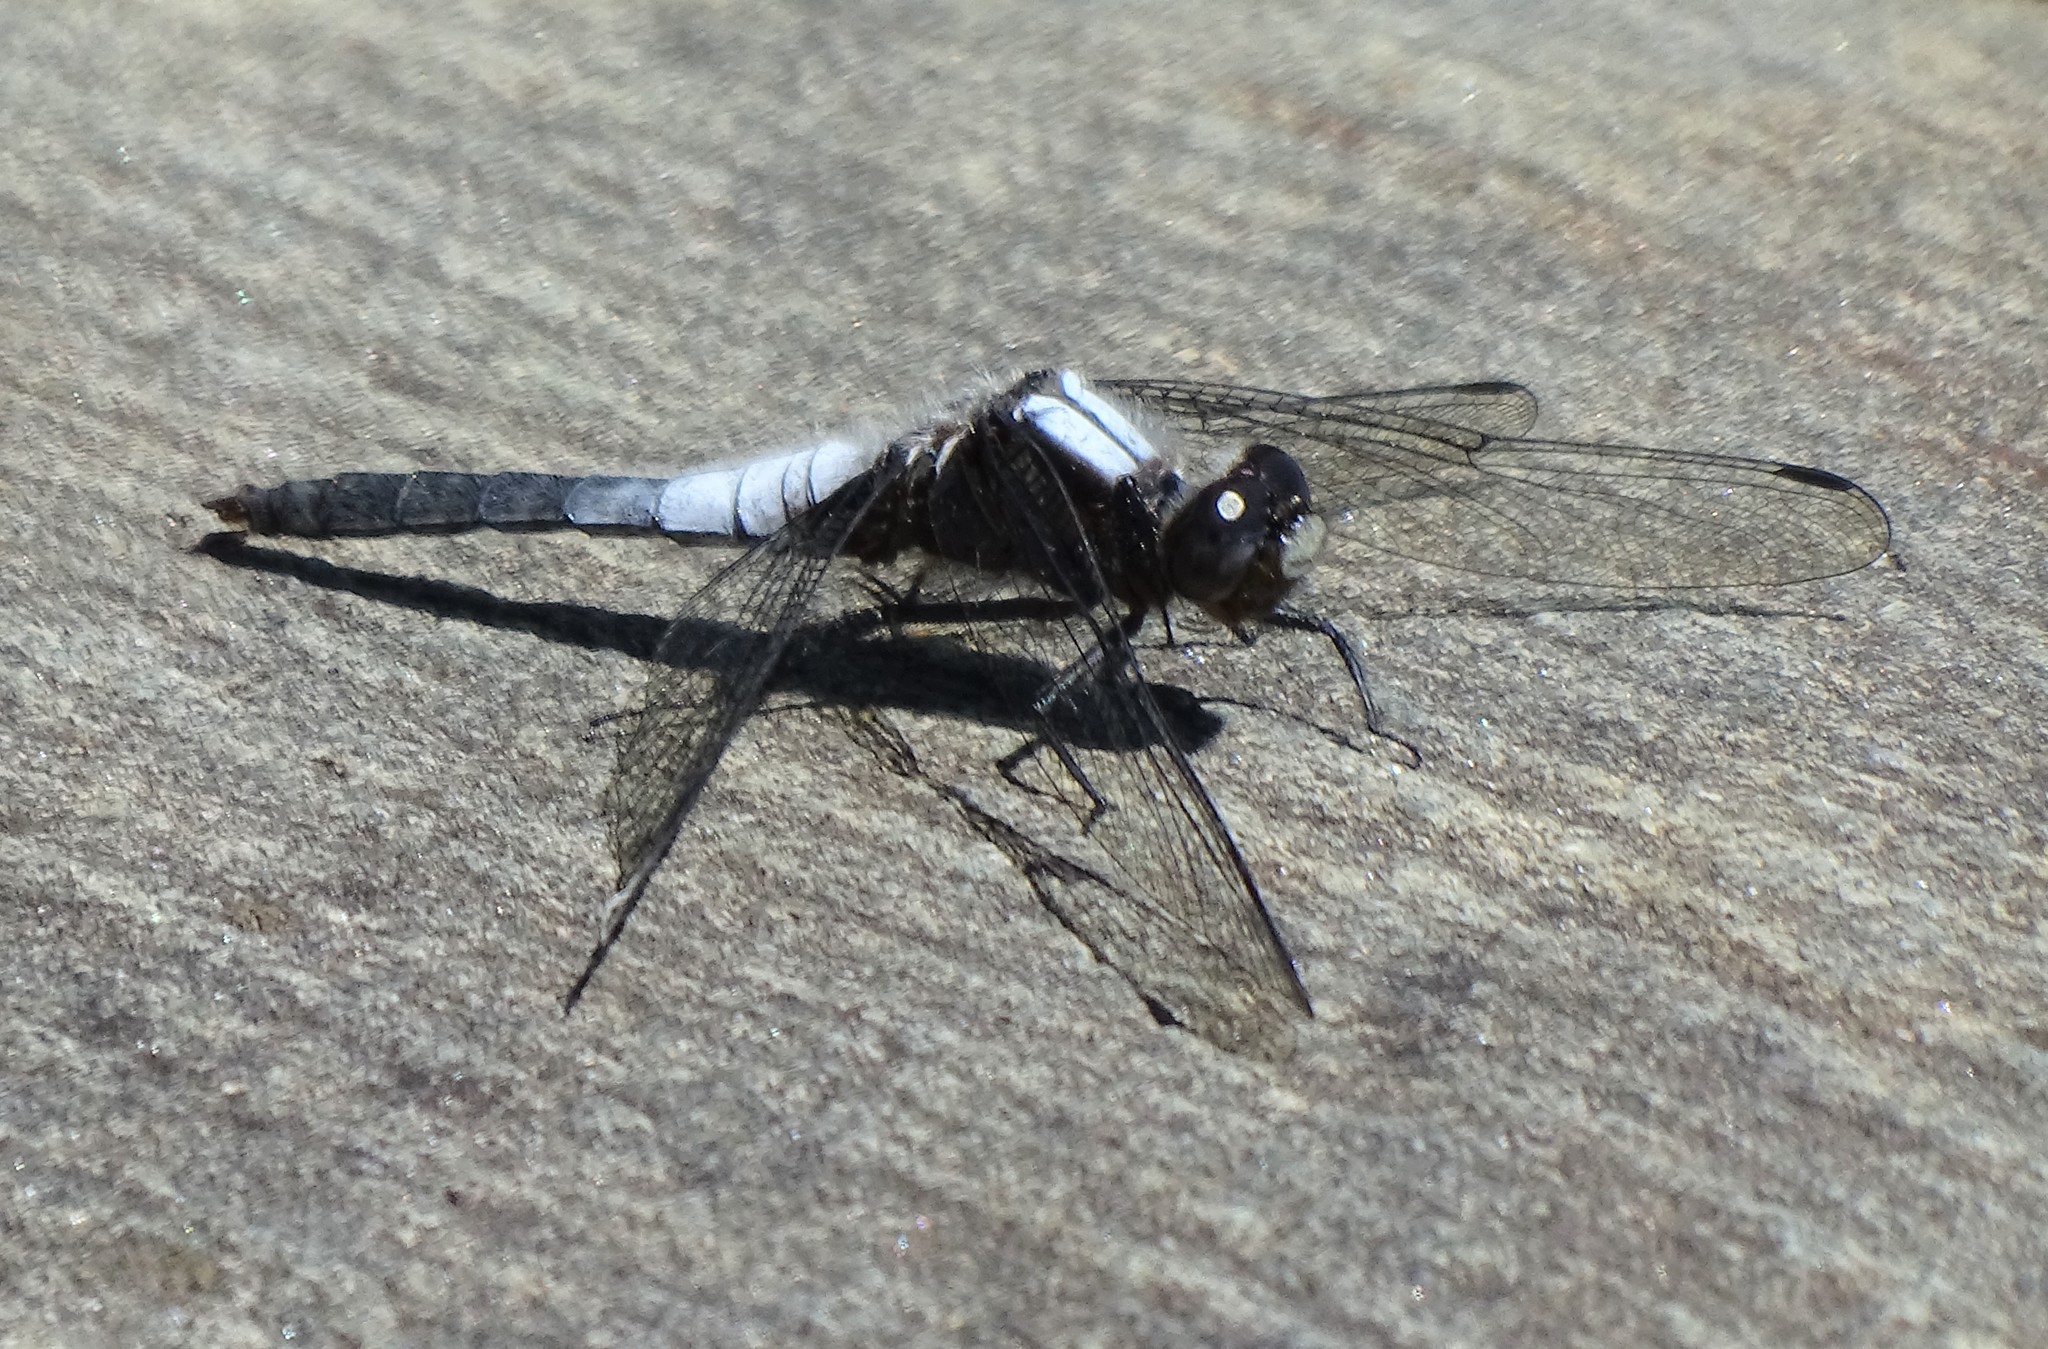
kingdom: Animalia
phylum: Arthropoda
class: Insecta
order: Odonata
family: Libellulidae
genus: Ladona
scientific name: Ladona julia
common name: Chalk-fronted corporal
